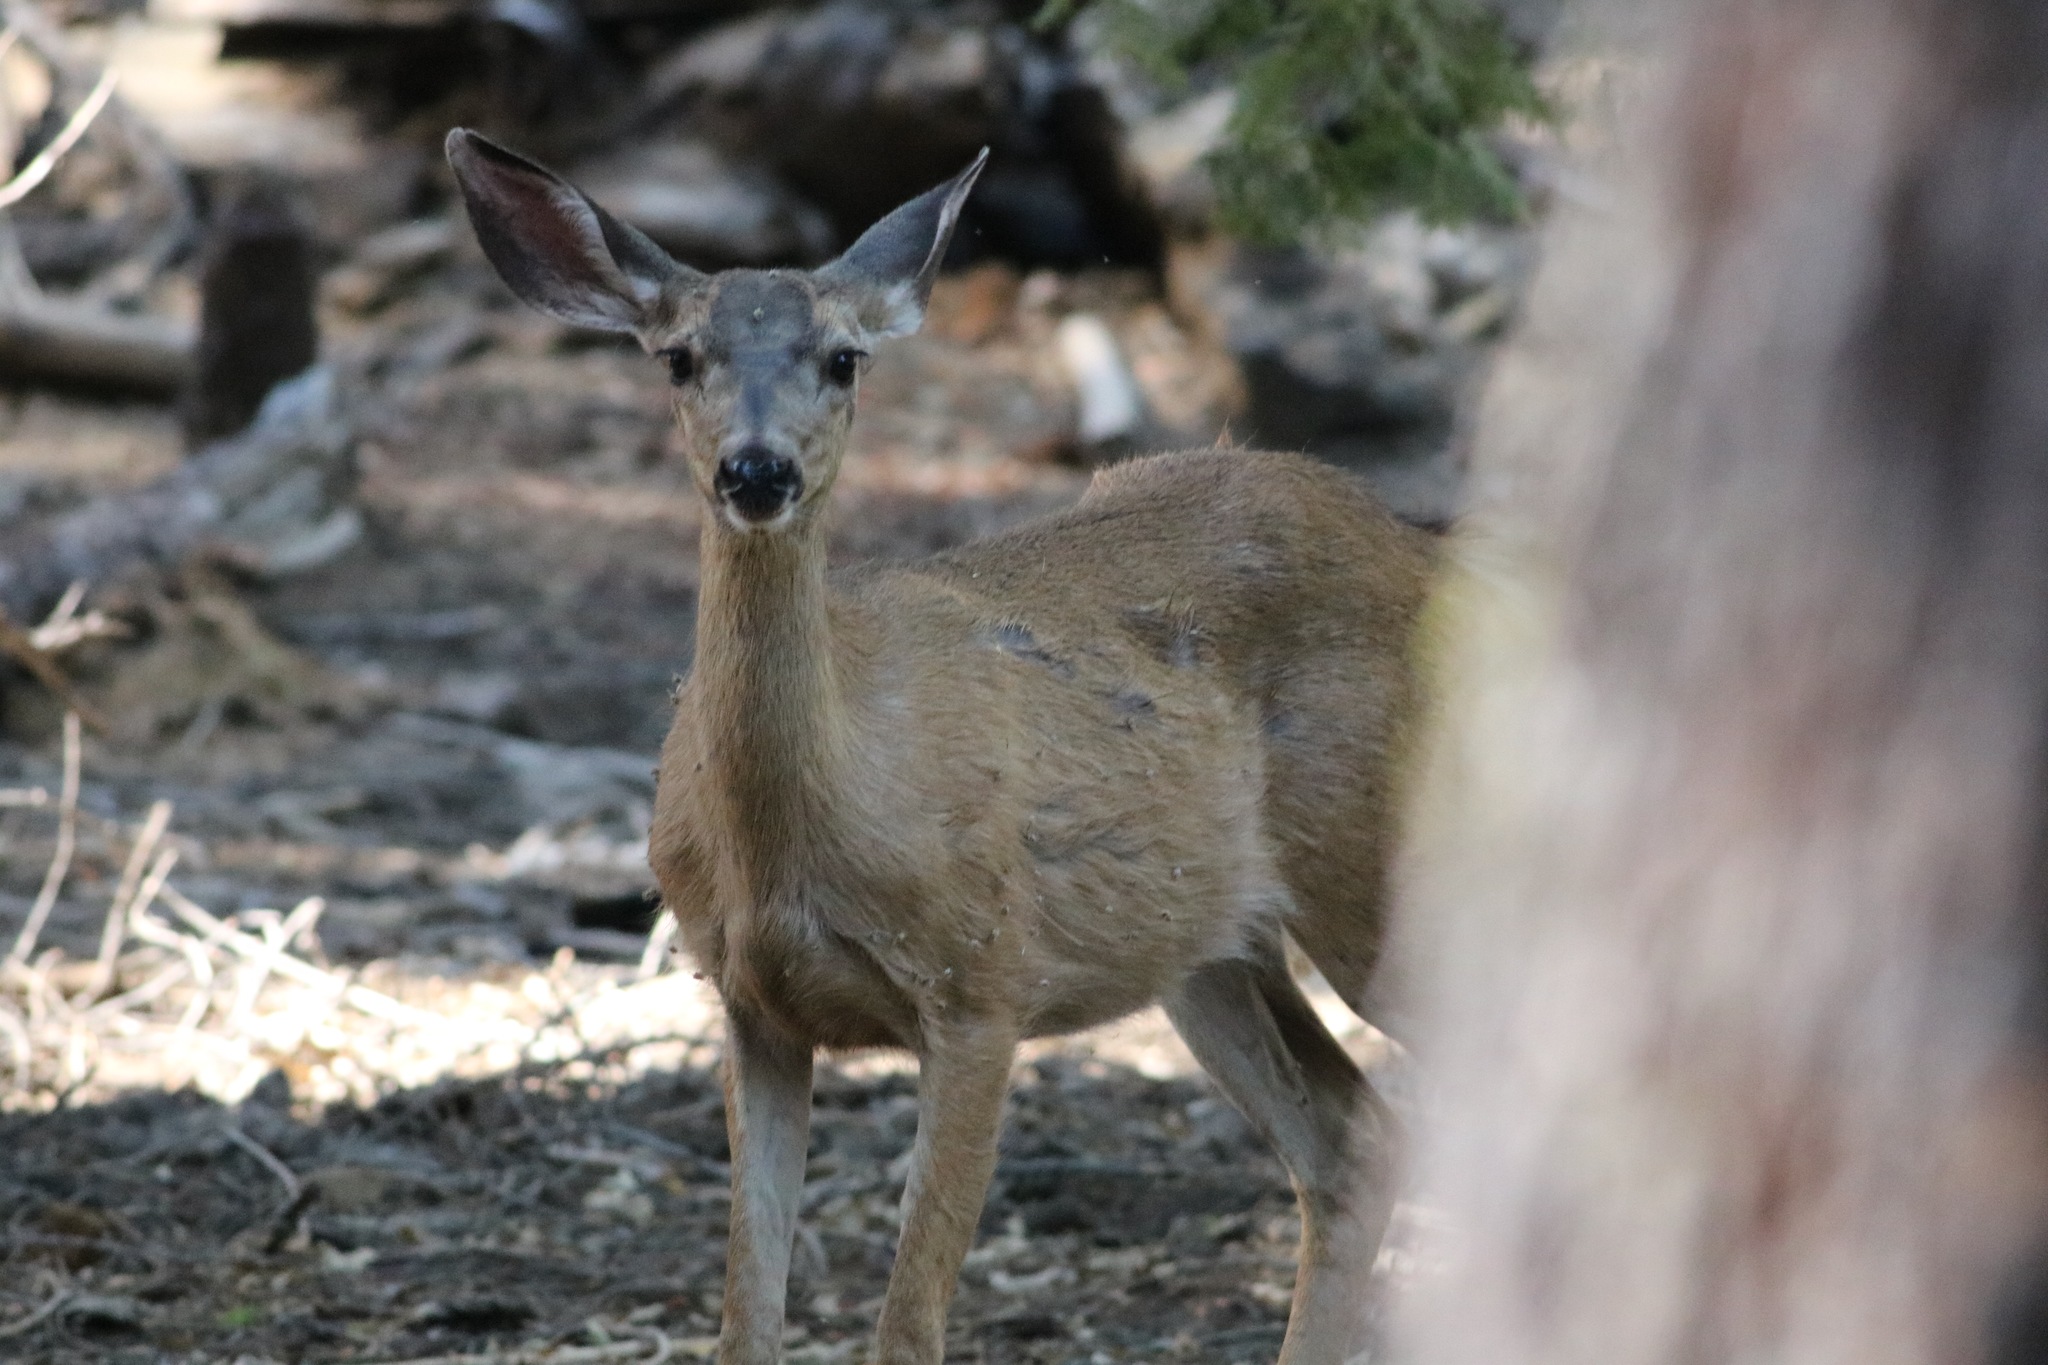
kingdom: Animalia
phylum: Chordata
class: Mammalia
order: Artiodactyla
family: Cervidae
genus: Odocoileus
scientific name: Odocoileus hemionus
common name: Mule deer
